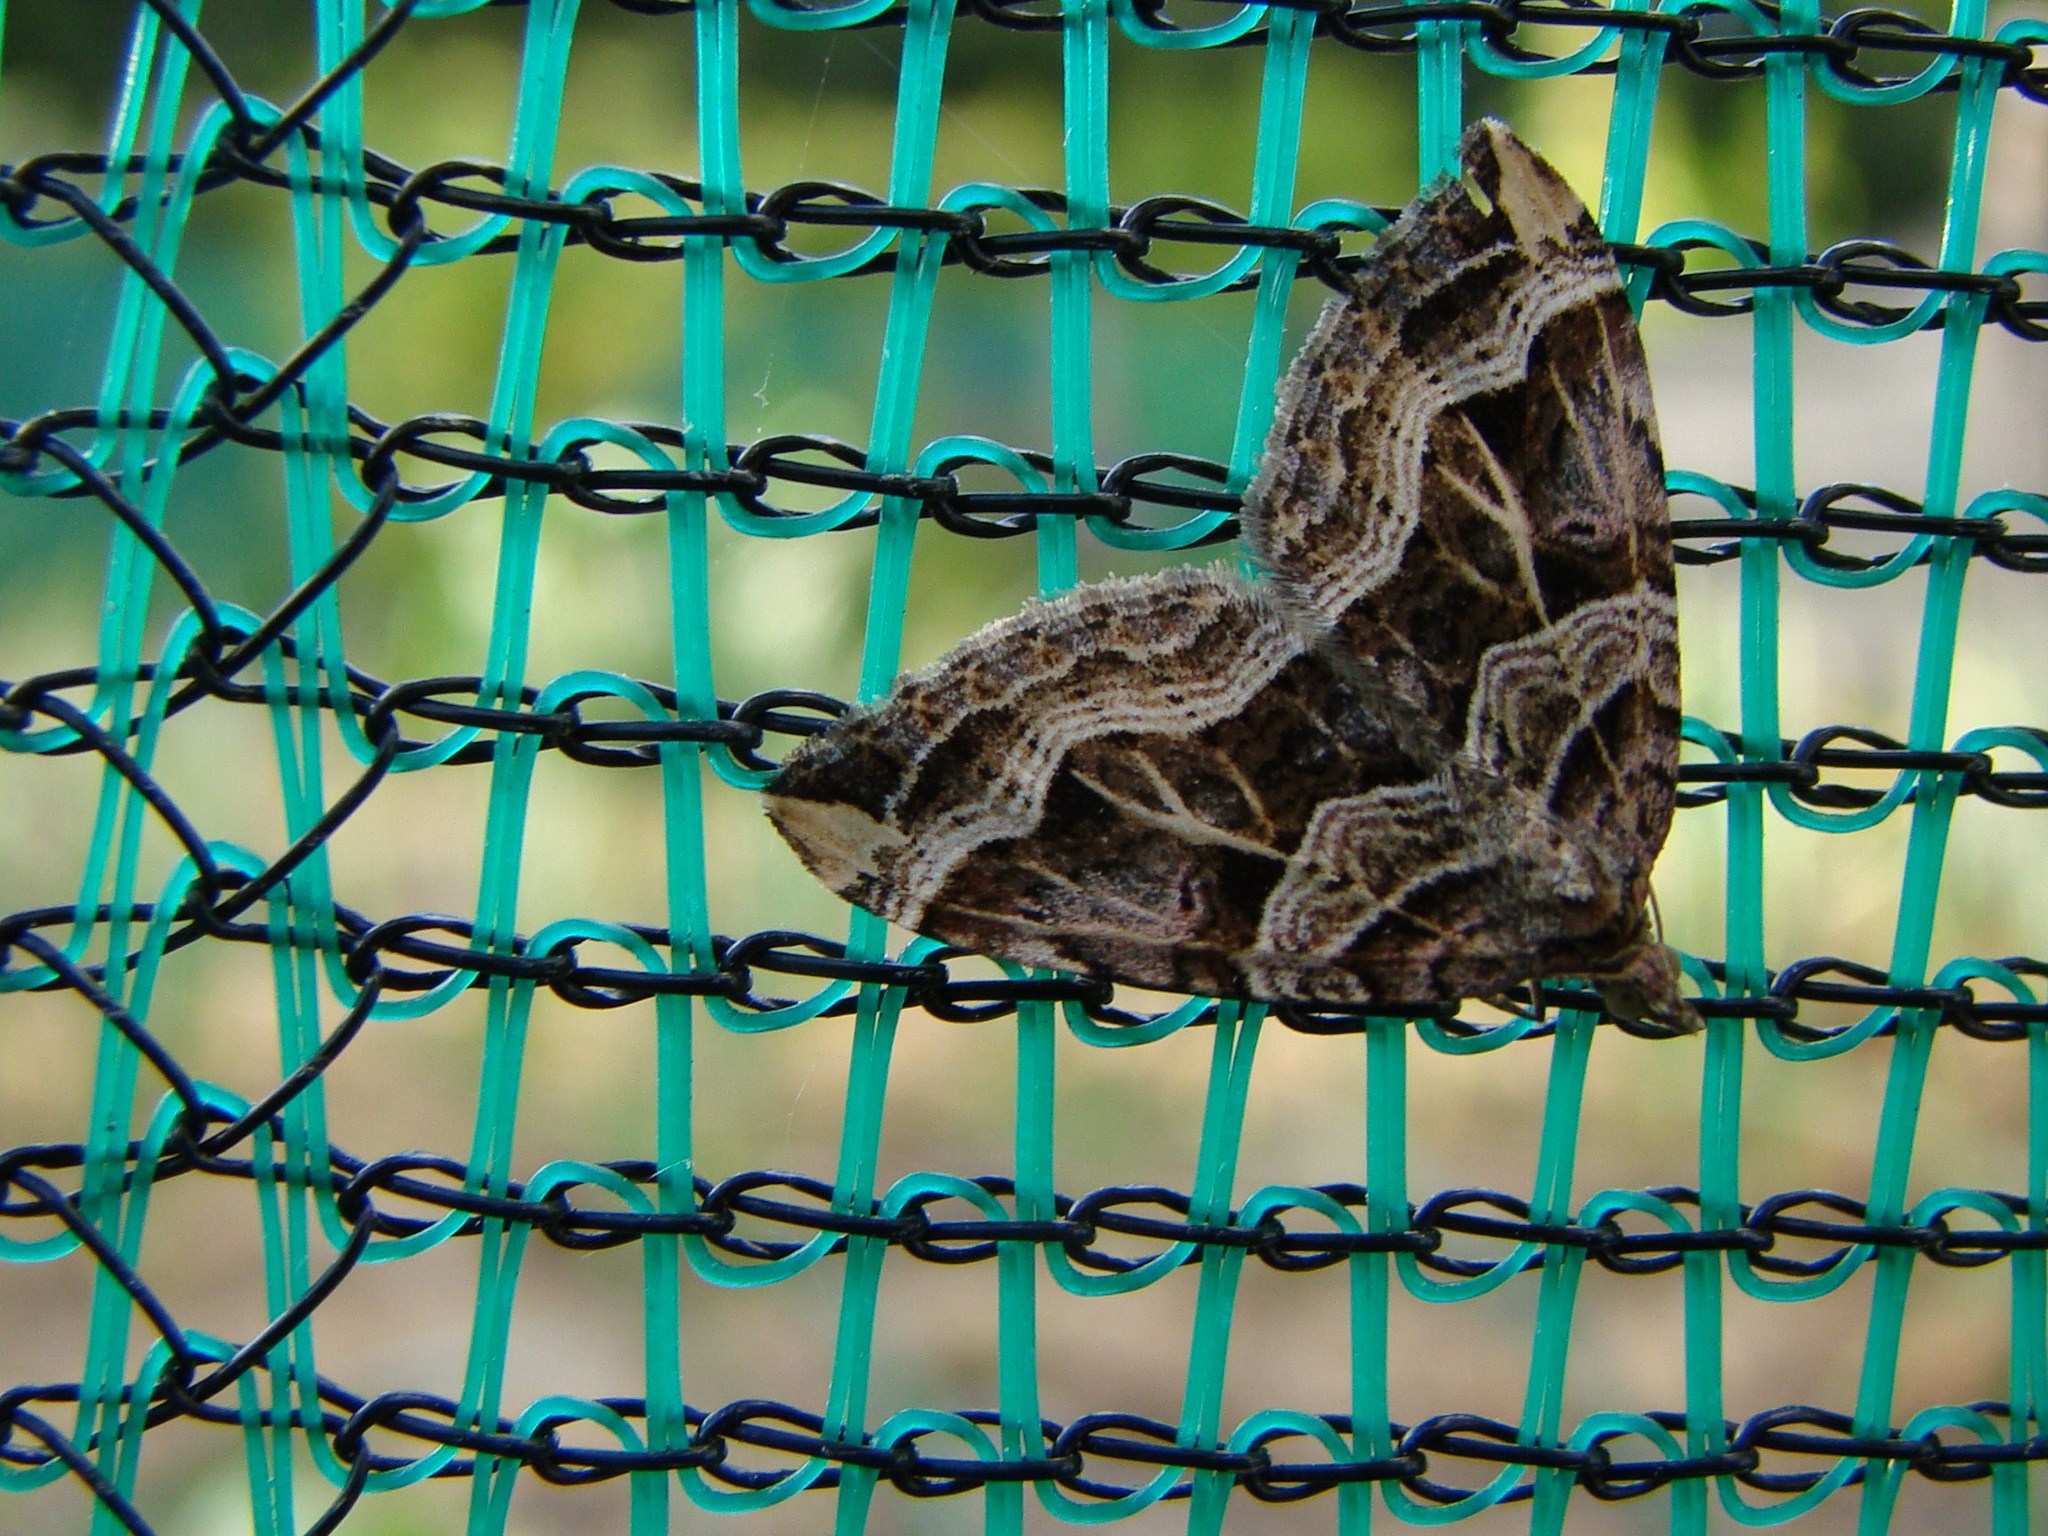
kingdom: Animalia
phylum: Arthropoda
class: Insecta
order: Lepidoptera
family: Geometridae
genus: Xanthorhoe
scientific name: Xanthorhoe semifissata
